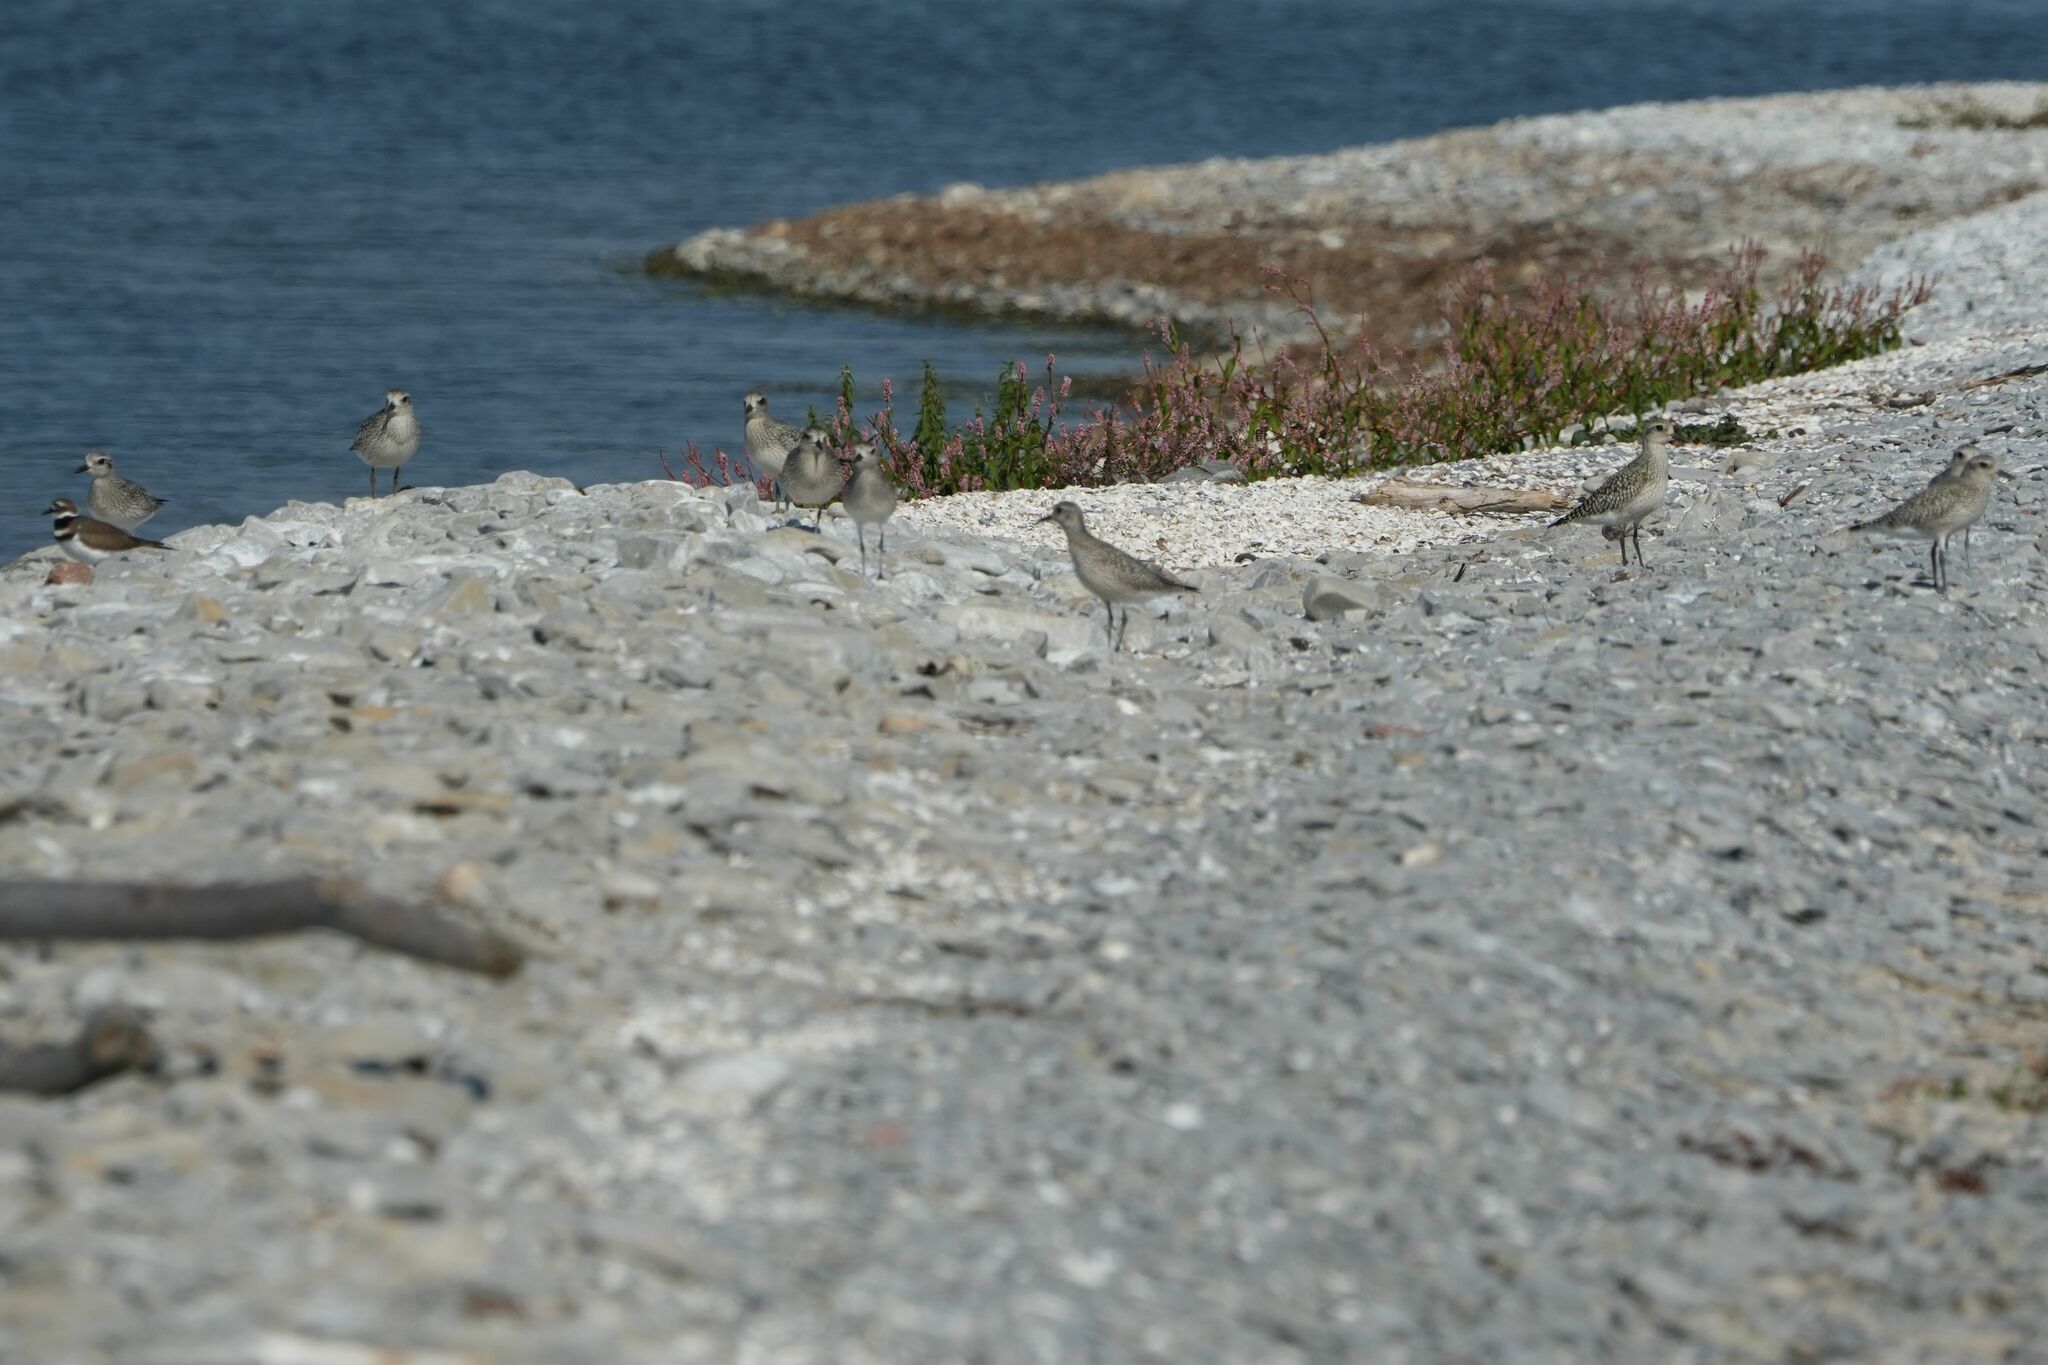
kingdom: Animalia
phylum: Chordata
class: Aves
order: Charadriiformes
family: Charadriidae
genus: Pluvialis
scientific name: Pluvialis squatarola
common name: Grey plover
